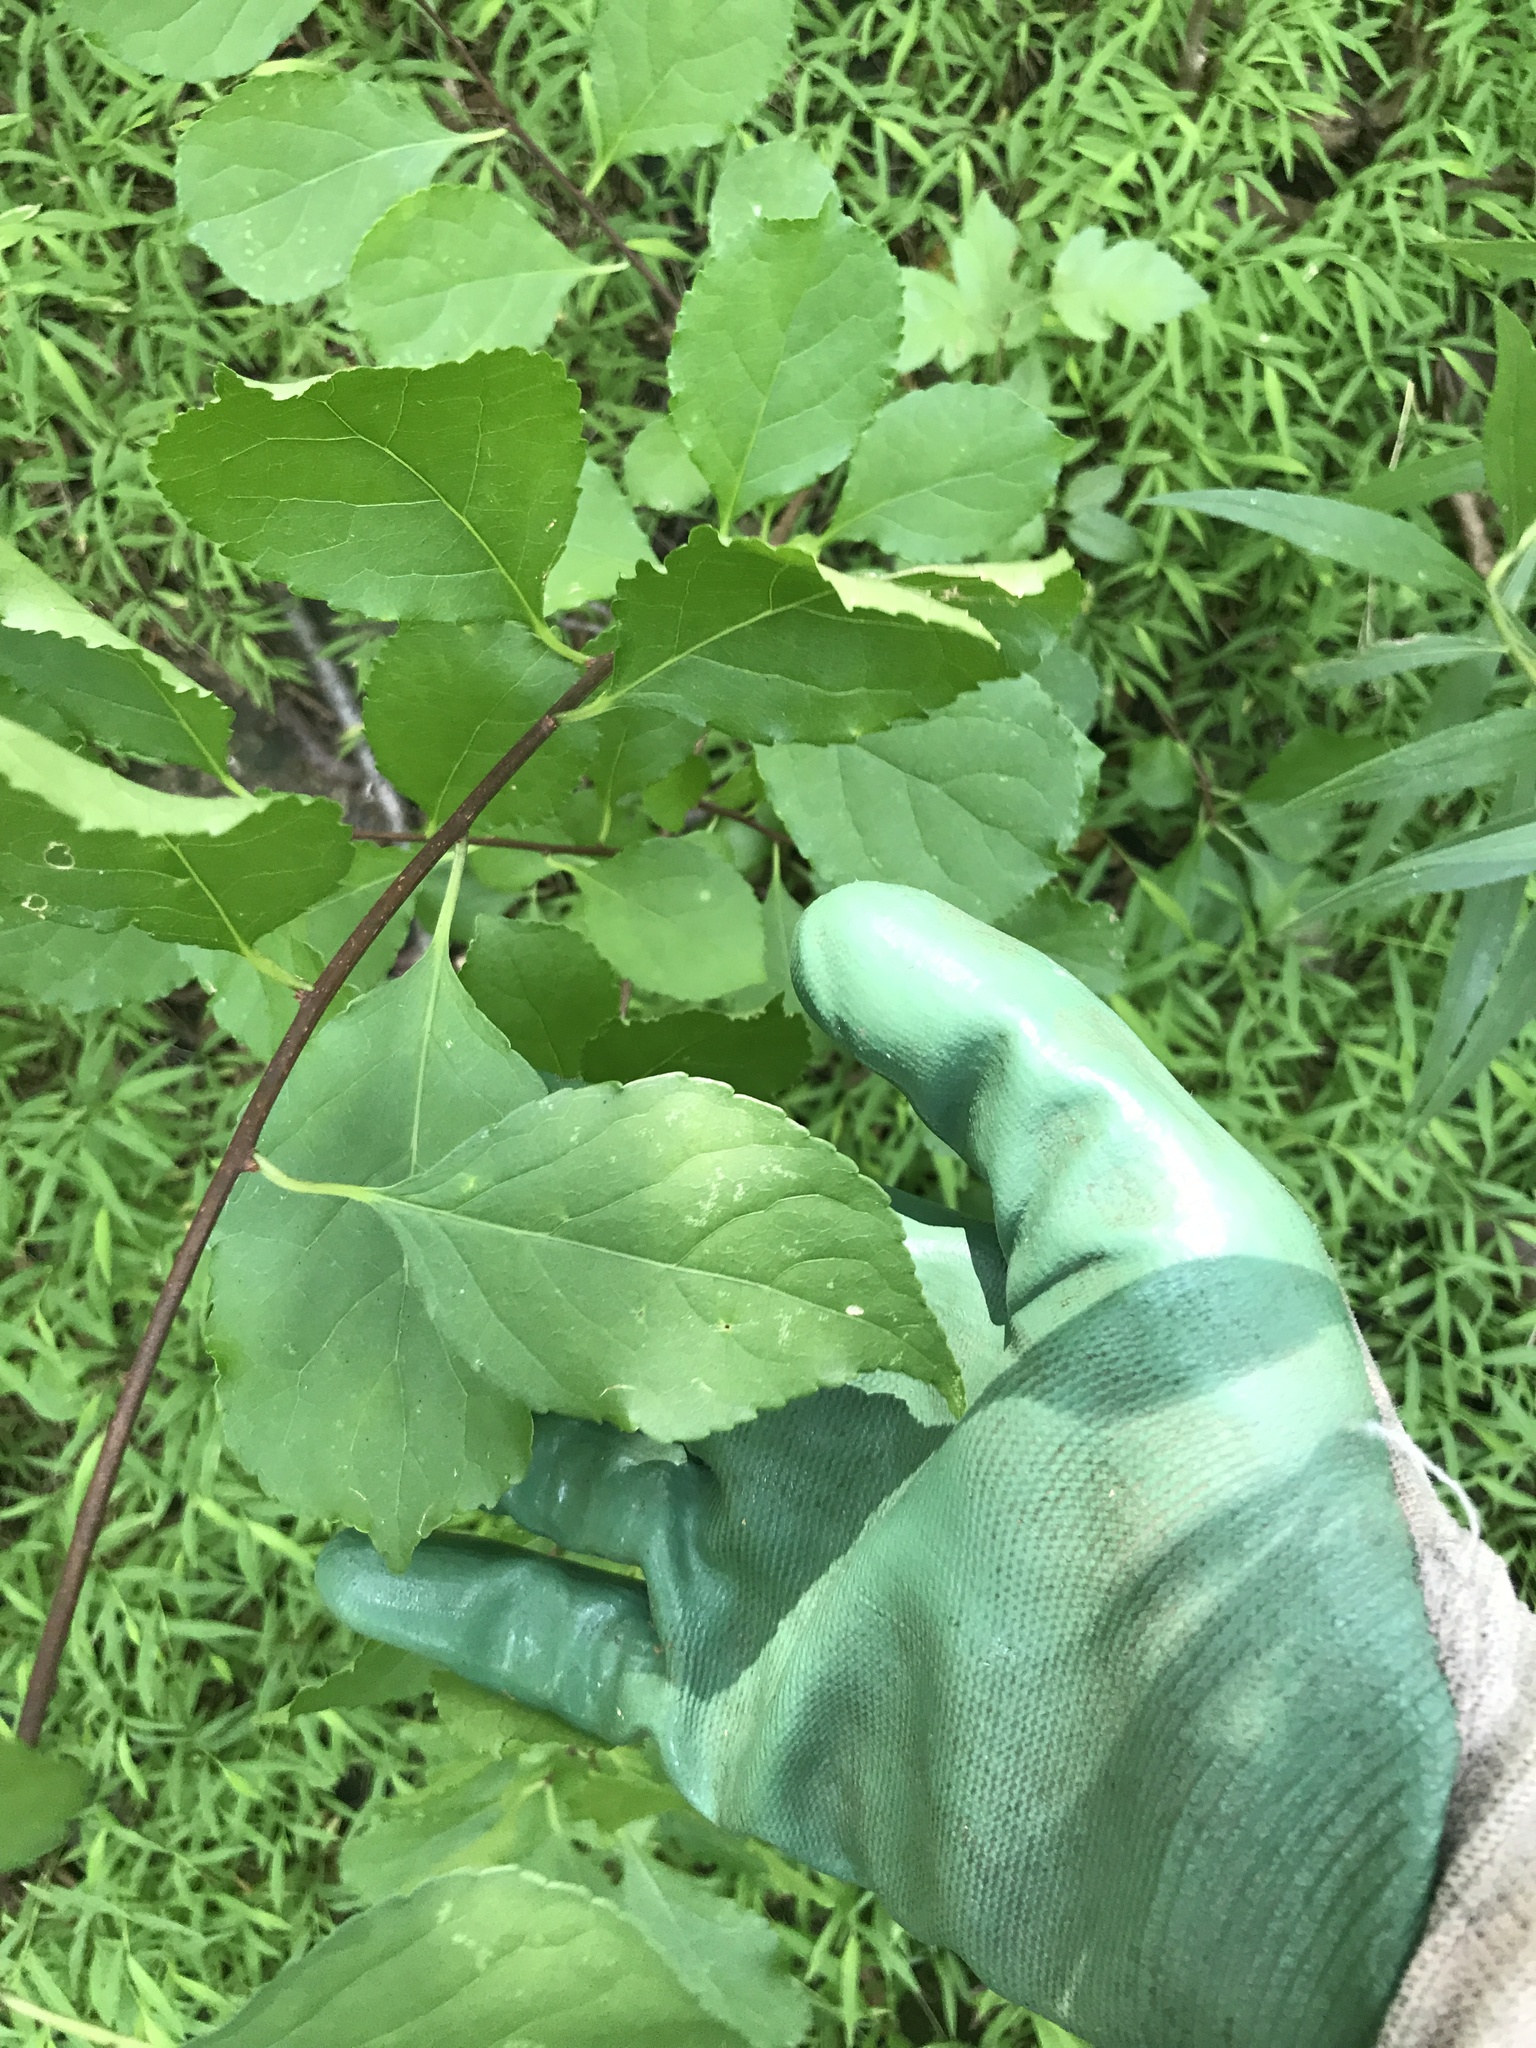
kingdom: Plantae
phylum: Tracheophyta
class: Magnoliopsida
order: Celastrales
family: Celastraceae
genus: Celastrus
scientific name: Celastrus orbiculatus
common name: Oriental bittersweet
